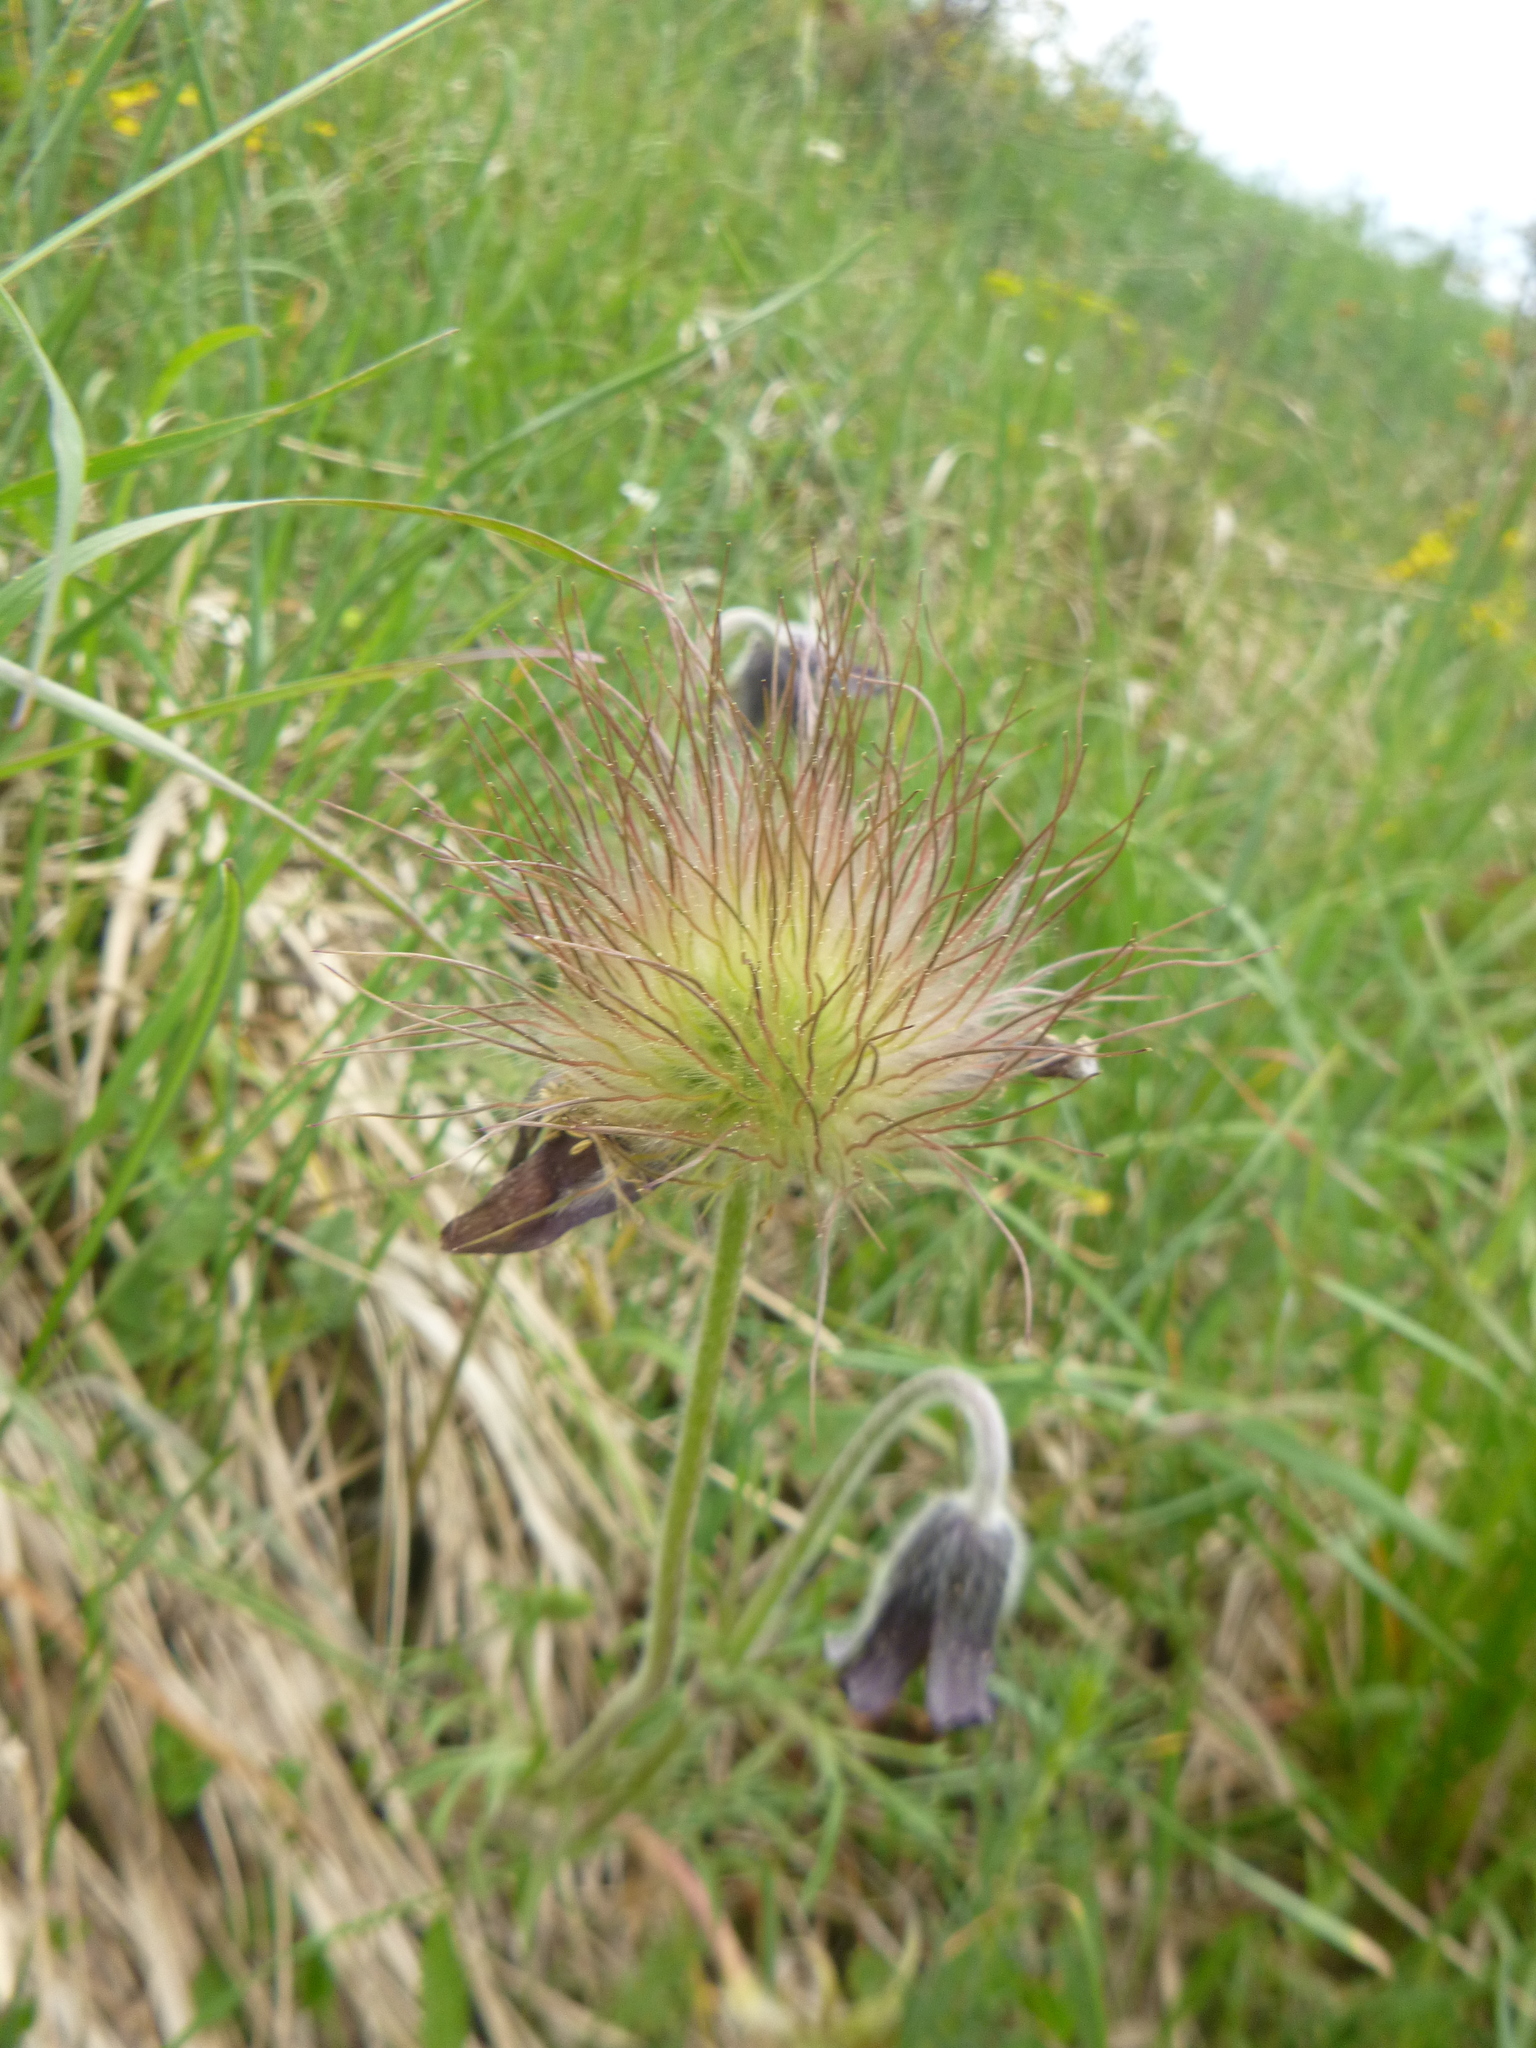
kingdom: Plantae
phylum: Tracheophyta
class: Magnoliopsida
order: Ranunculales
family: Ranunculaceae
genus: Pulsatilla
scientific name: Pulsatilla pratensis
